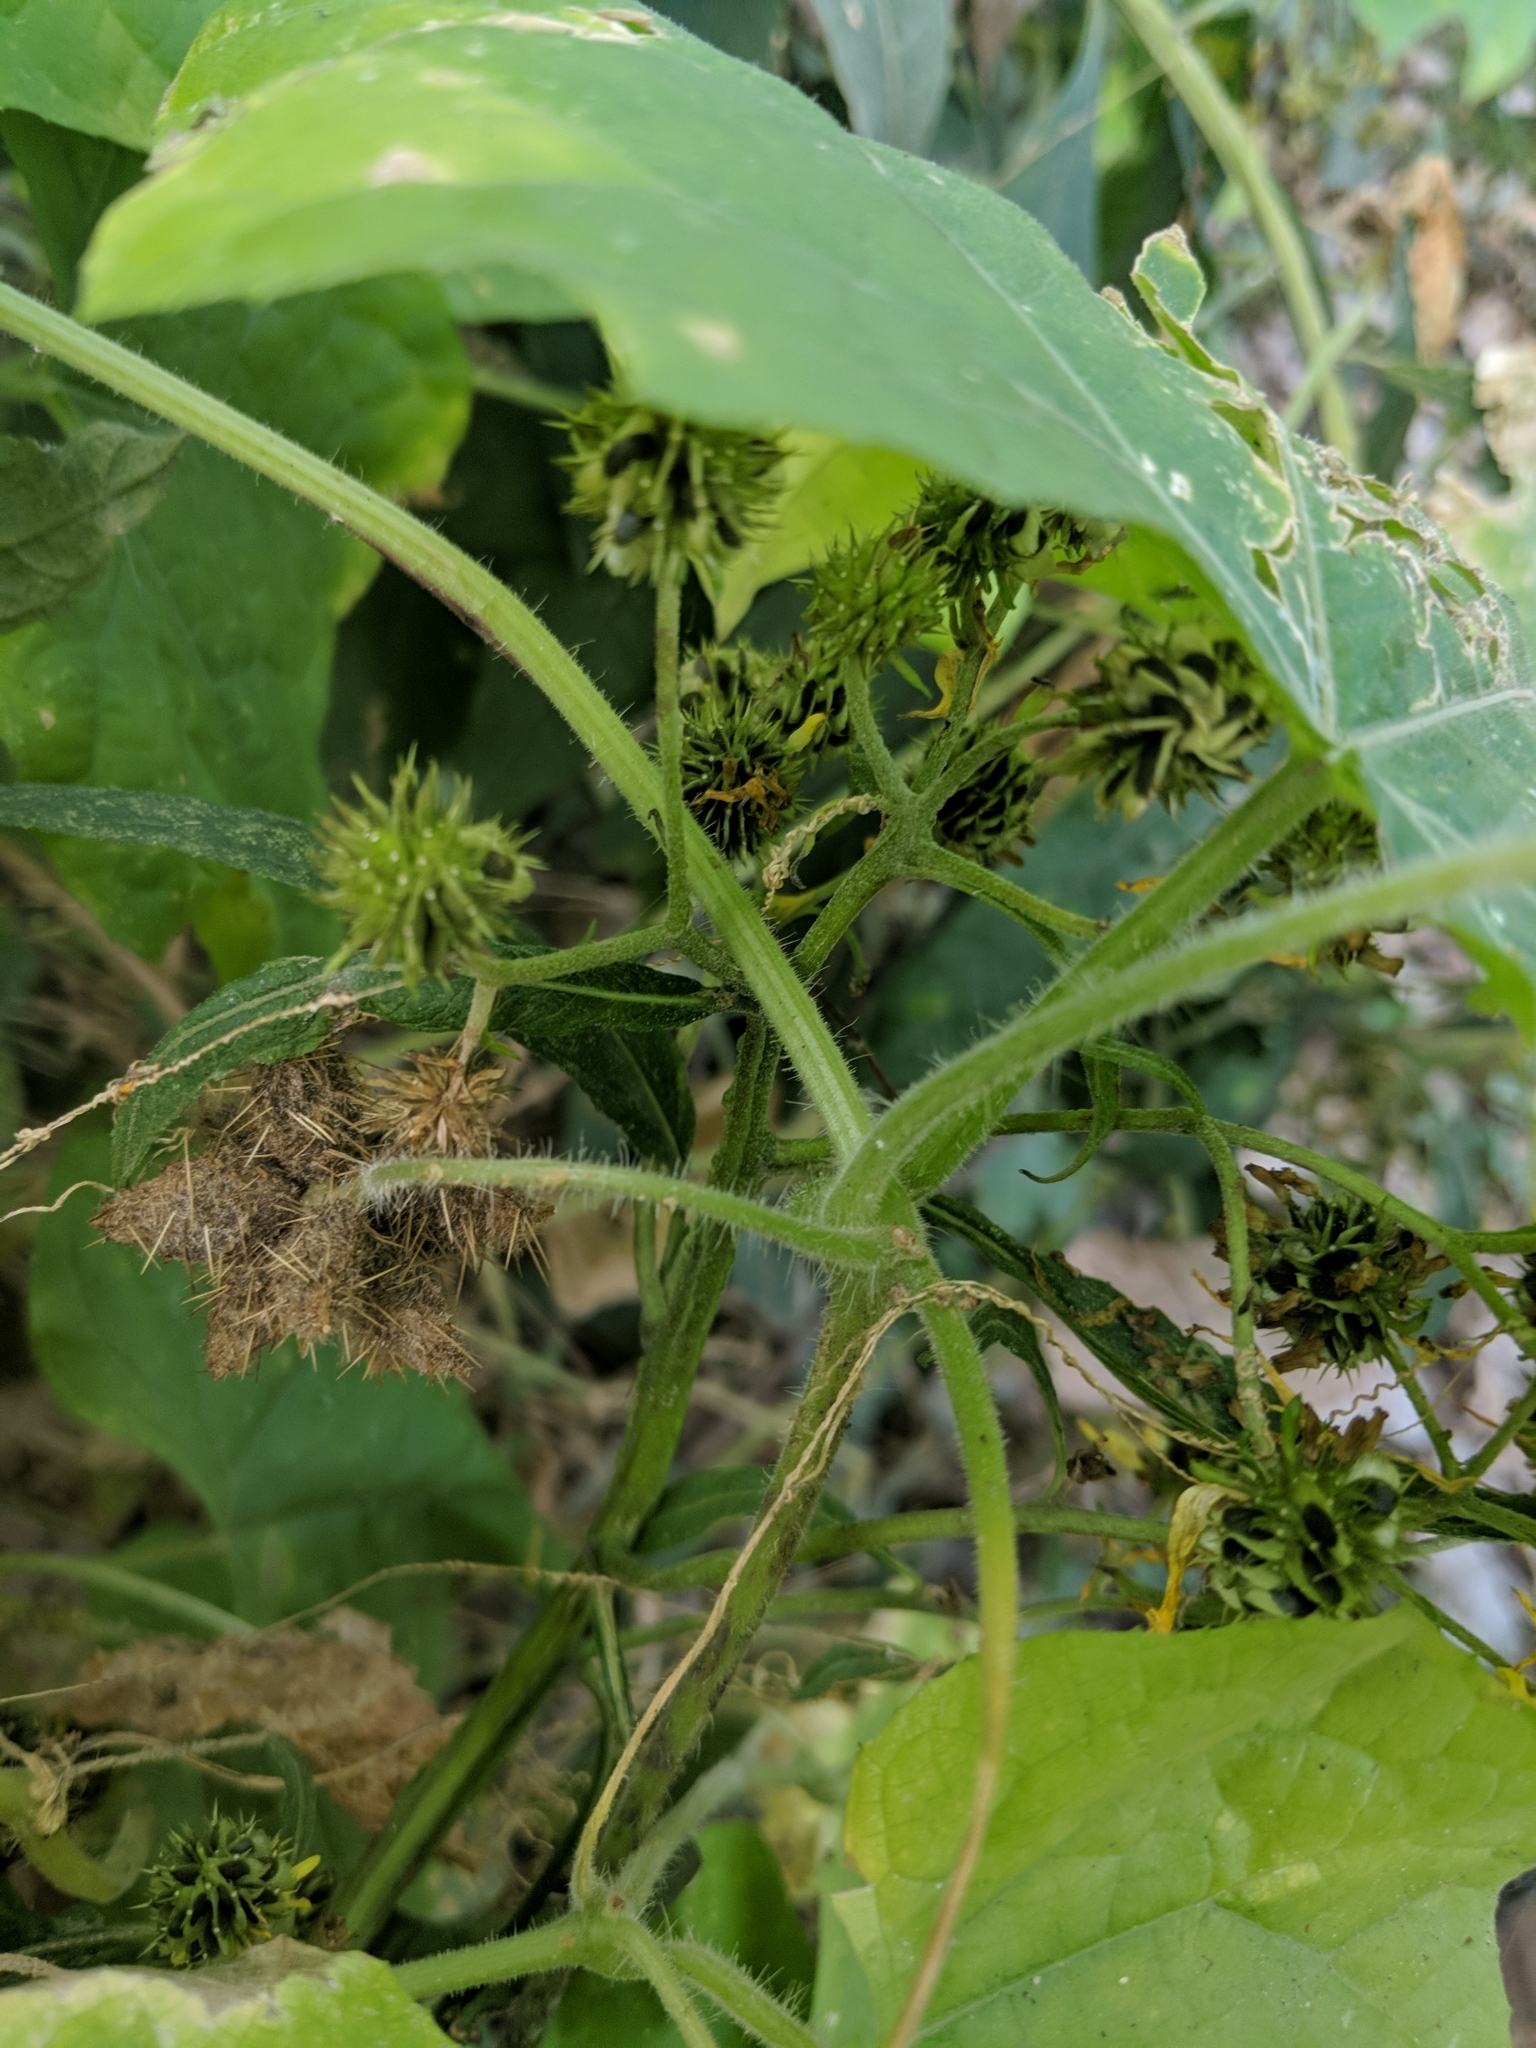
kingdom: Plantae
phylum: Tracheophyta
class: Magnoliopsida
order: Cucurbitales
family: Cucurbitaceae
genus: Sicyos
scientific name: Sicyos angulatus
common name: Angled burr cucumber
